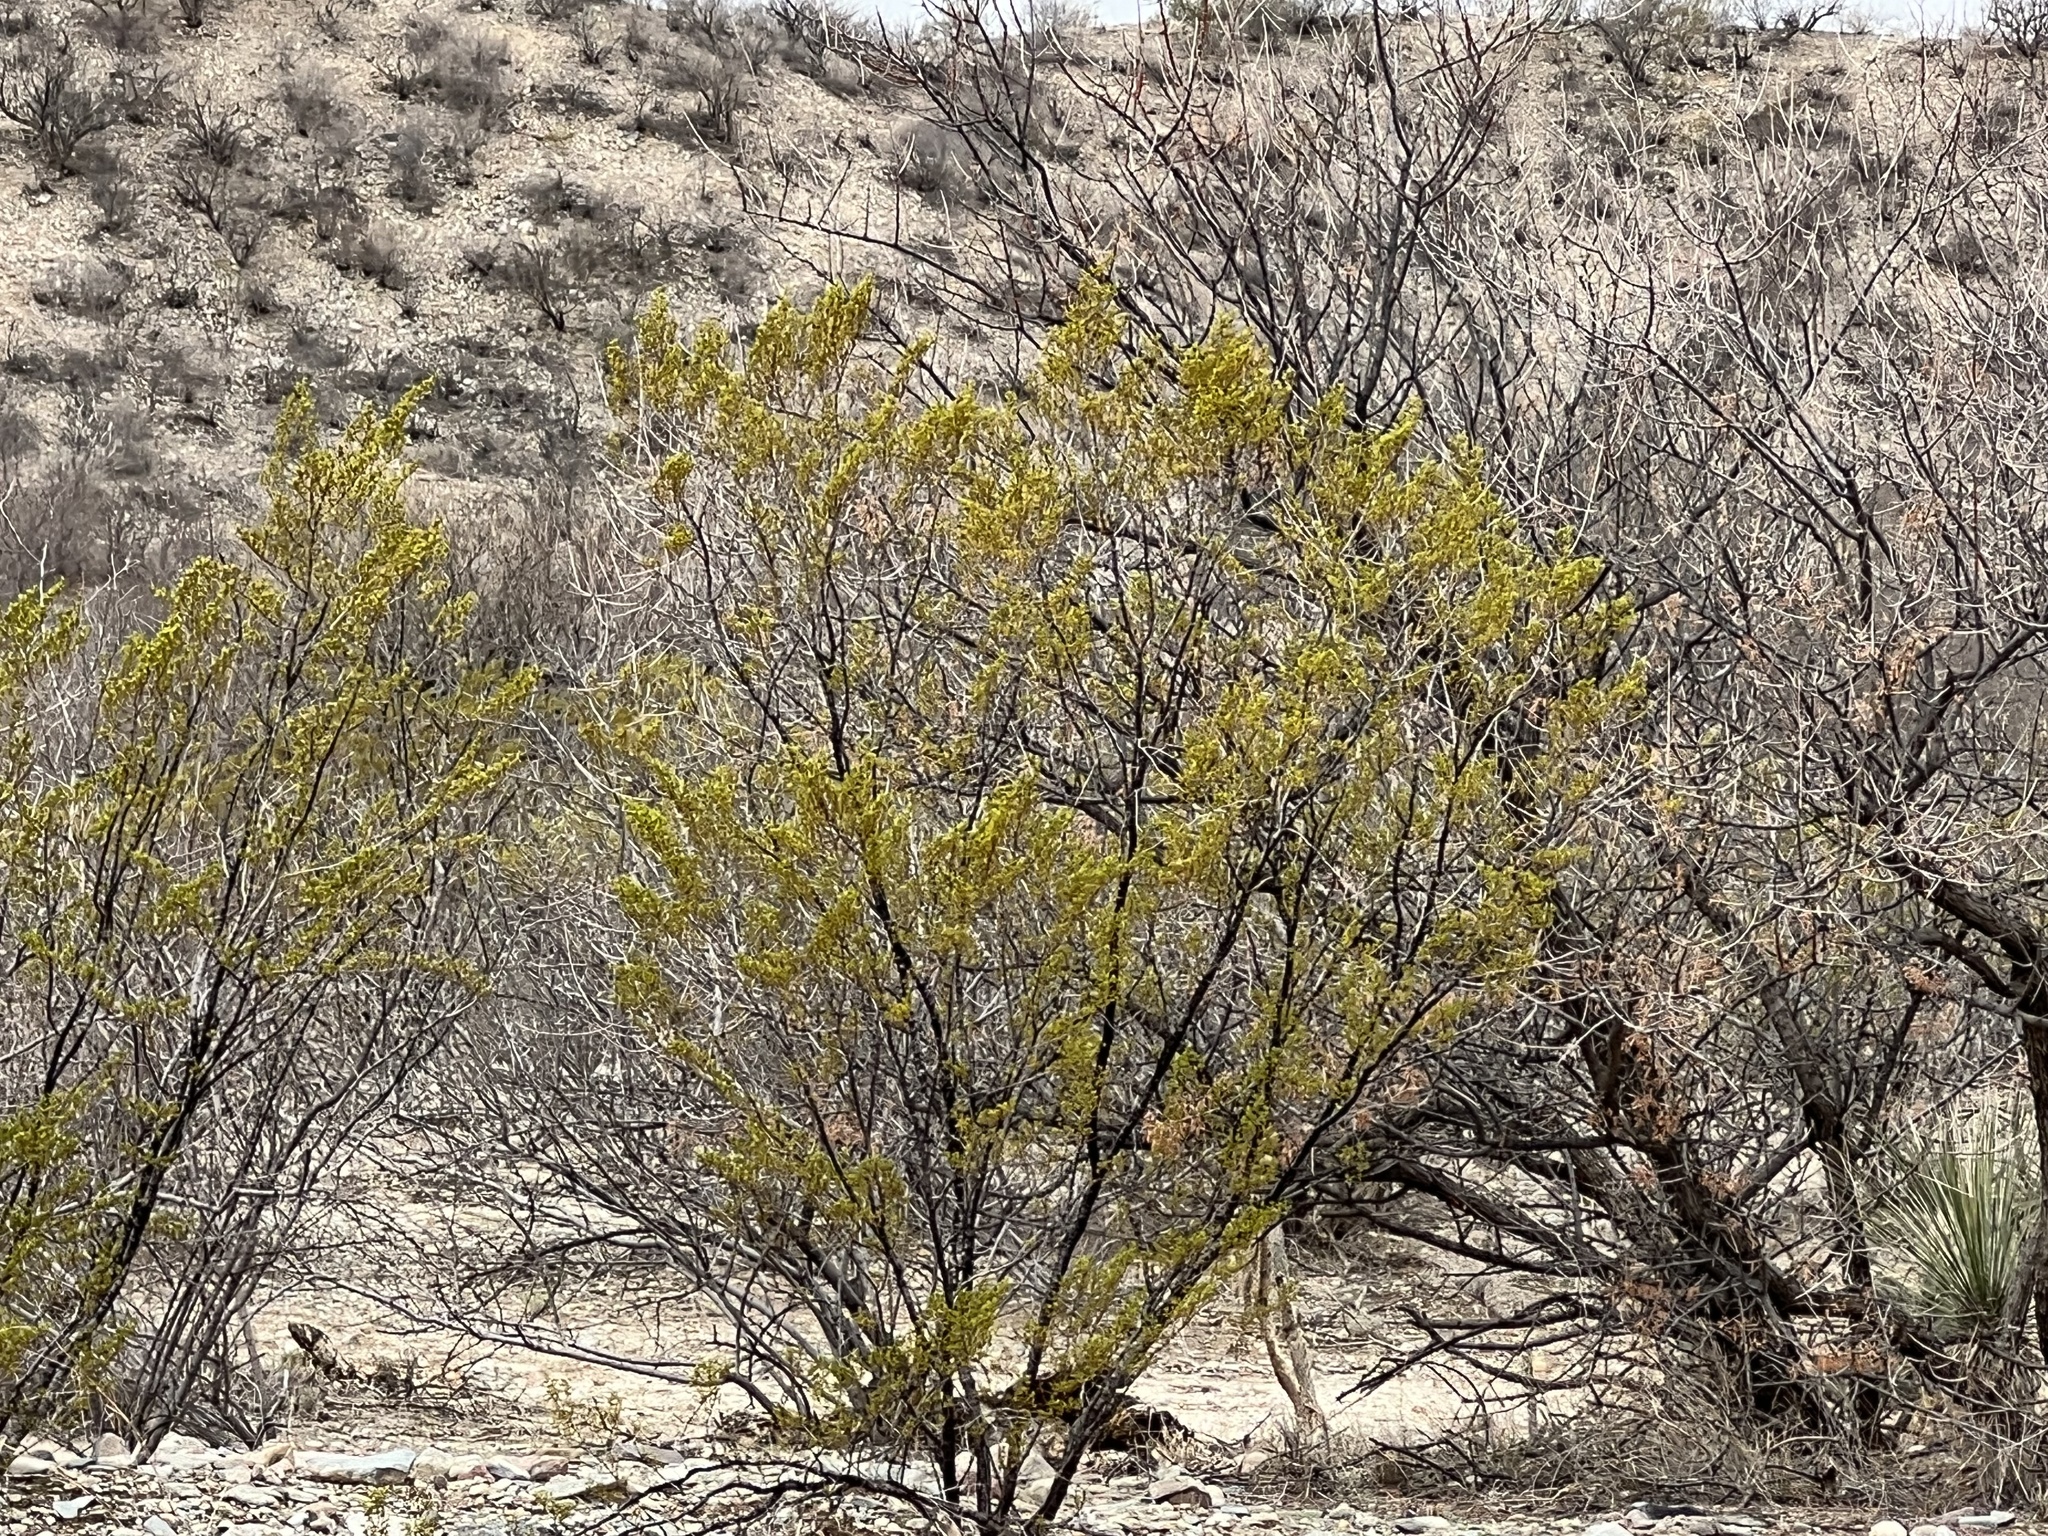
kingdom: Plantae
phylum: Tracheophyta
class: Magnoliopsida
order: Zygophyllales
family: Zygophyllaceae
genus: Larrea
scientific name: Larrea tridentata
